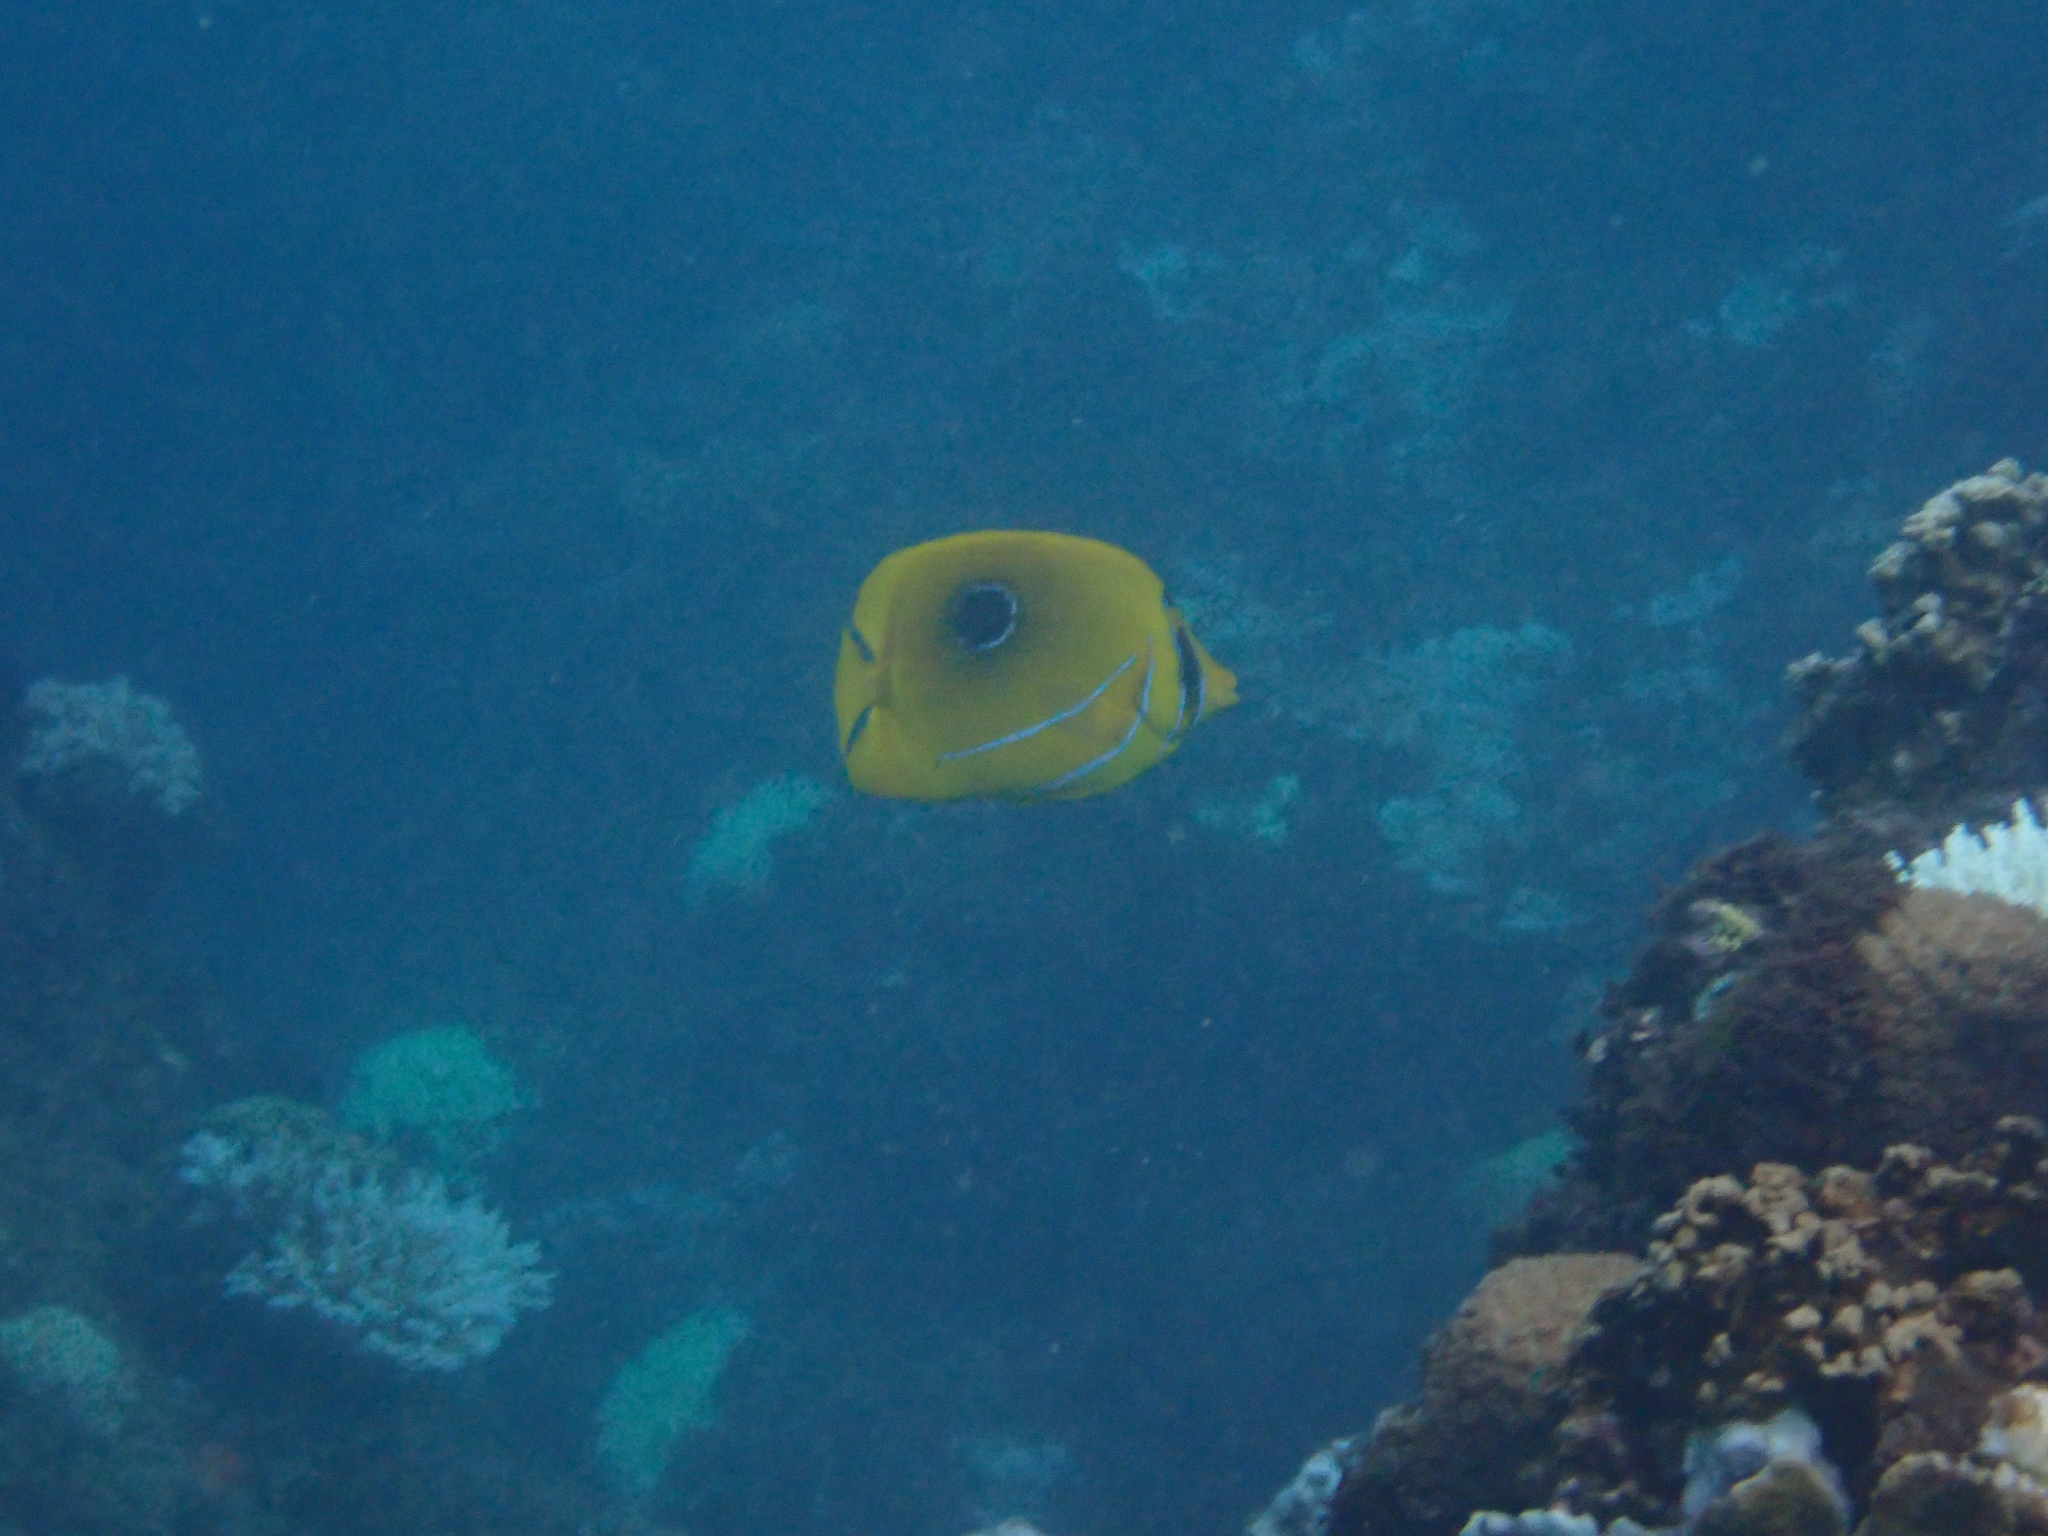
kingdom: Animalia
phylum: Chordata
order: Perciformes
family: Chaetodontidae
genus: Chaetodon
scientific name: Chaetodon bennetti
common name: Bennett's butterflyfish
